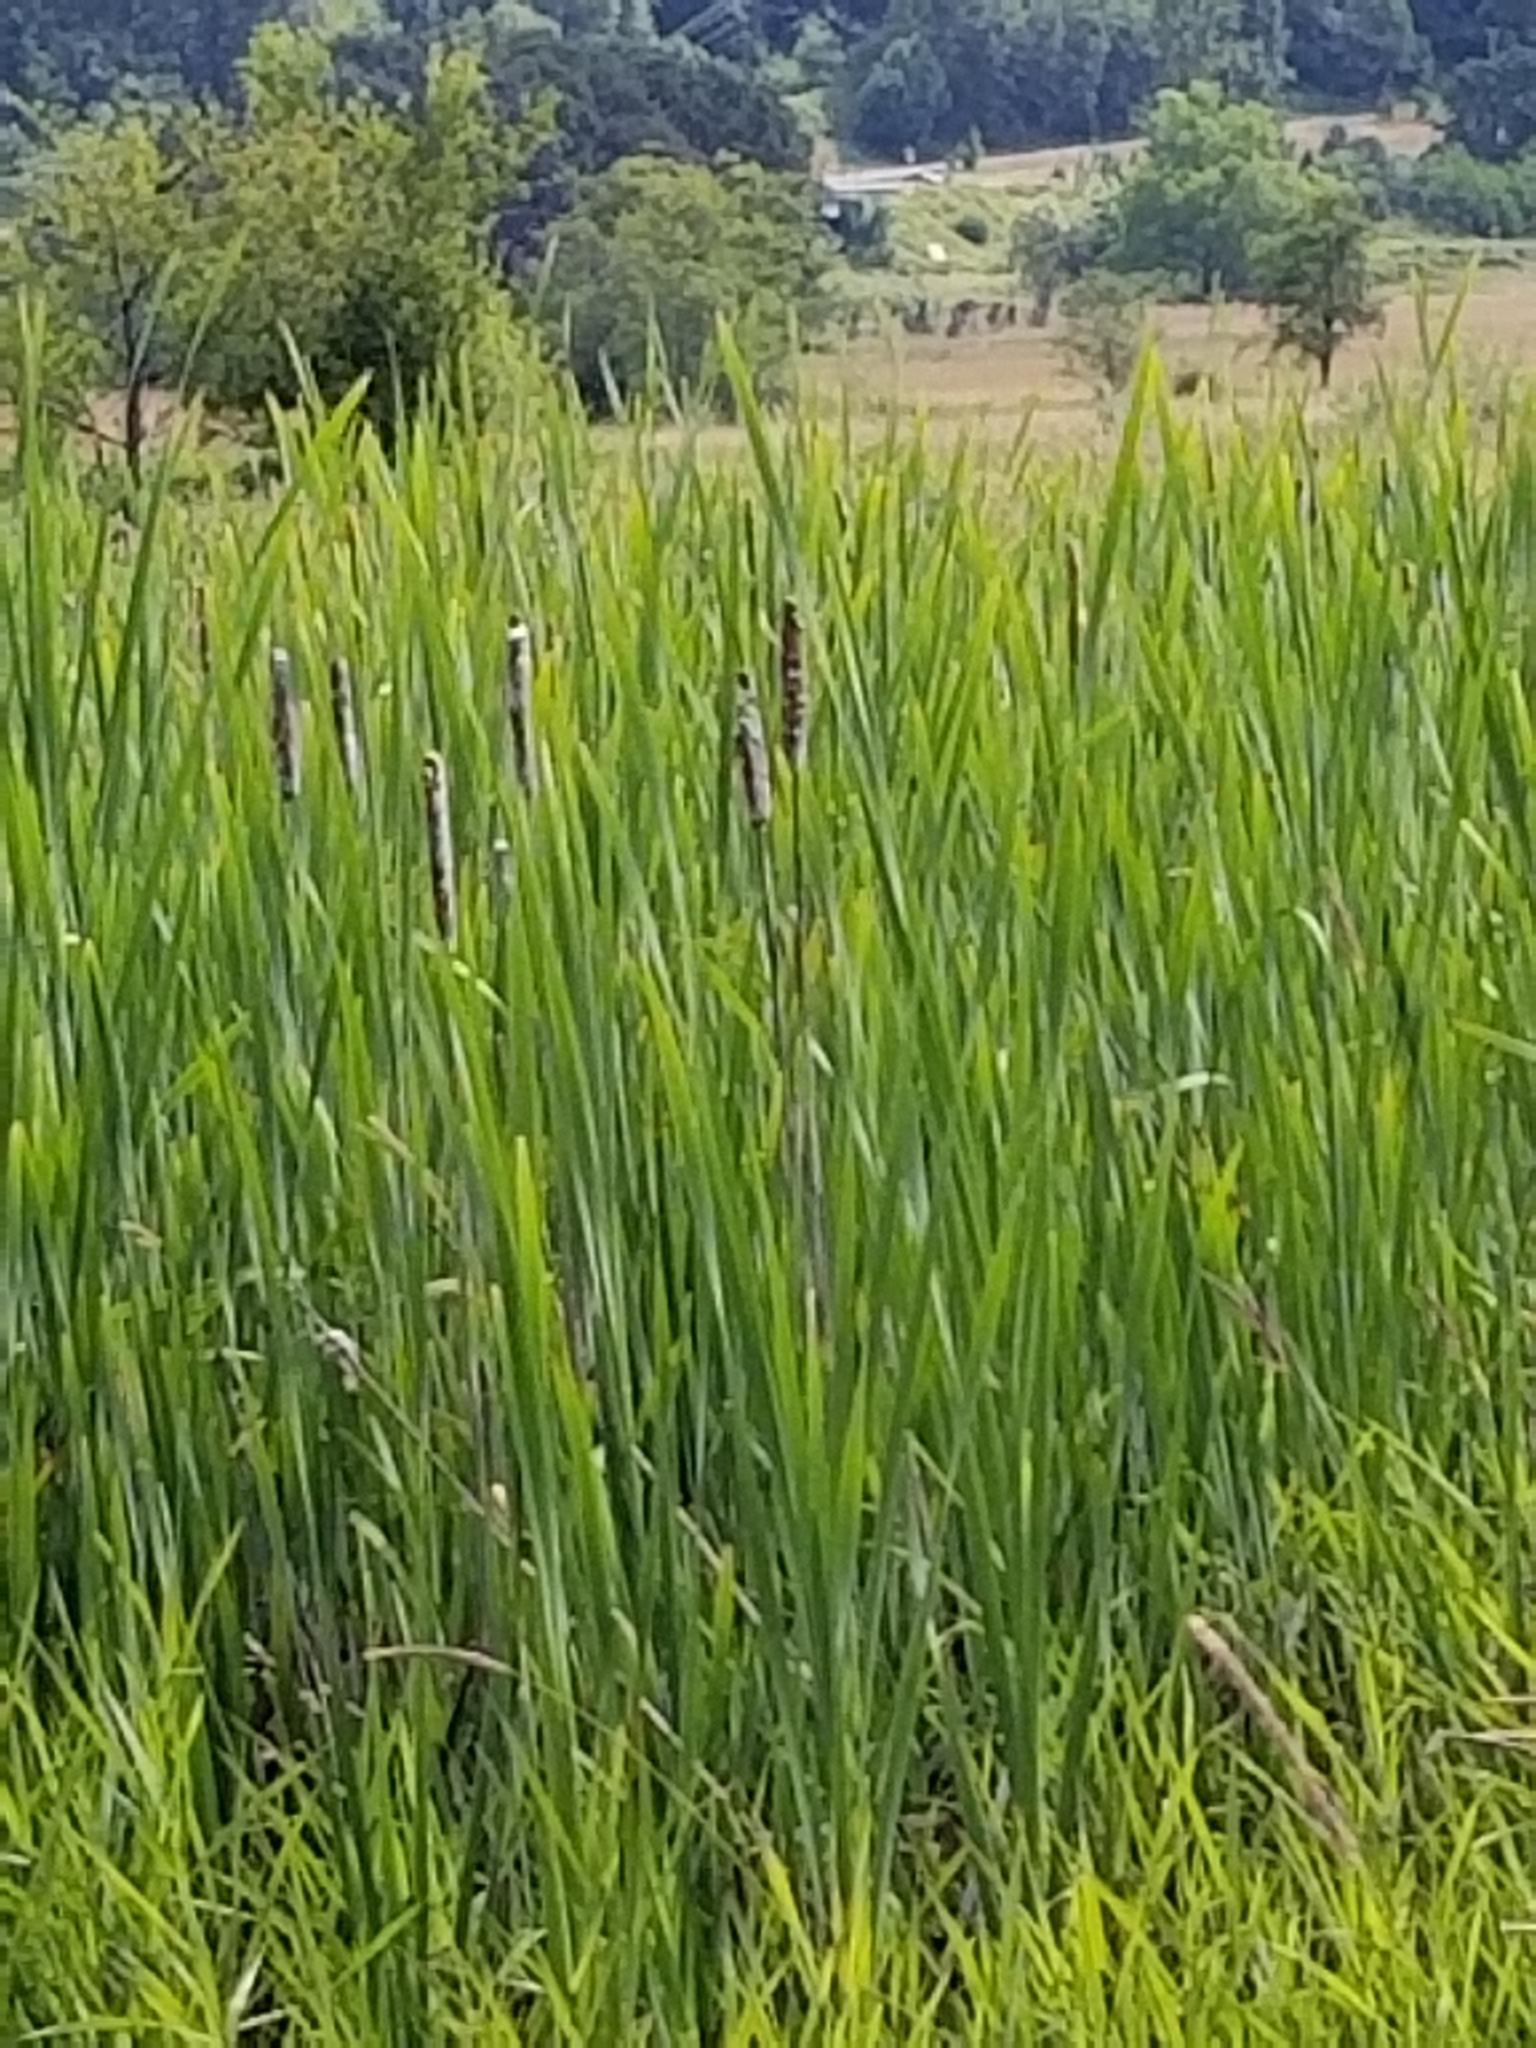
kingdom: Plantae
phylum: Tracheophyta
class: Liliopsida
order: Poales
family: Typhaceae
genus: Typha
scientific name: Typha latifolia
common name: Broadleaf cattail
